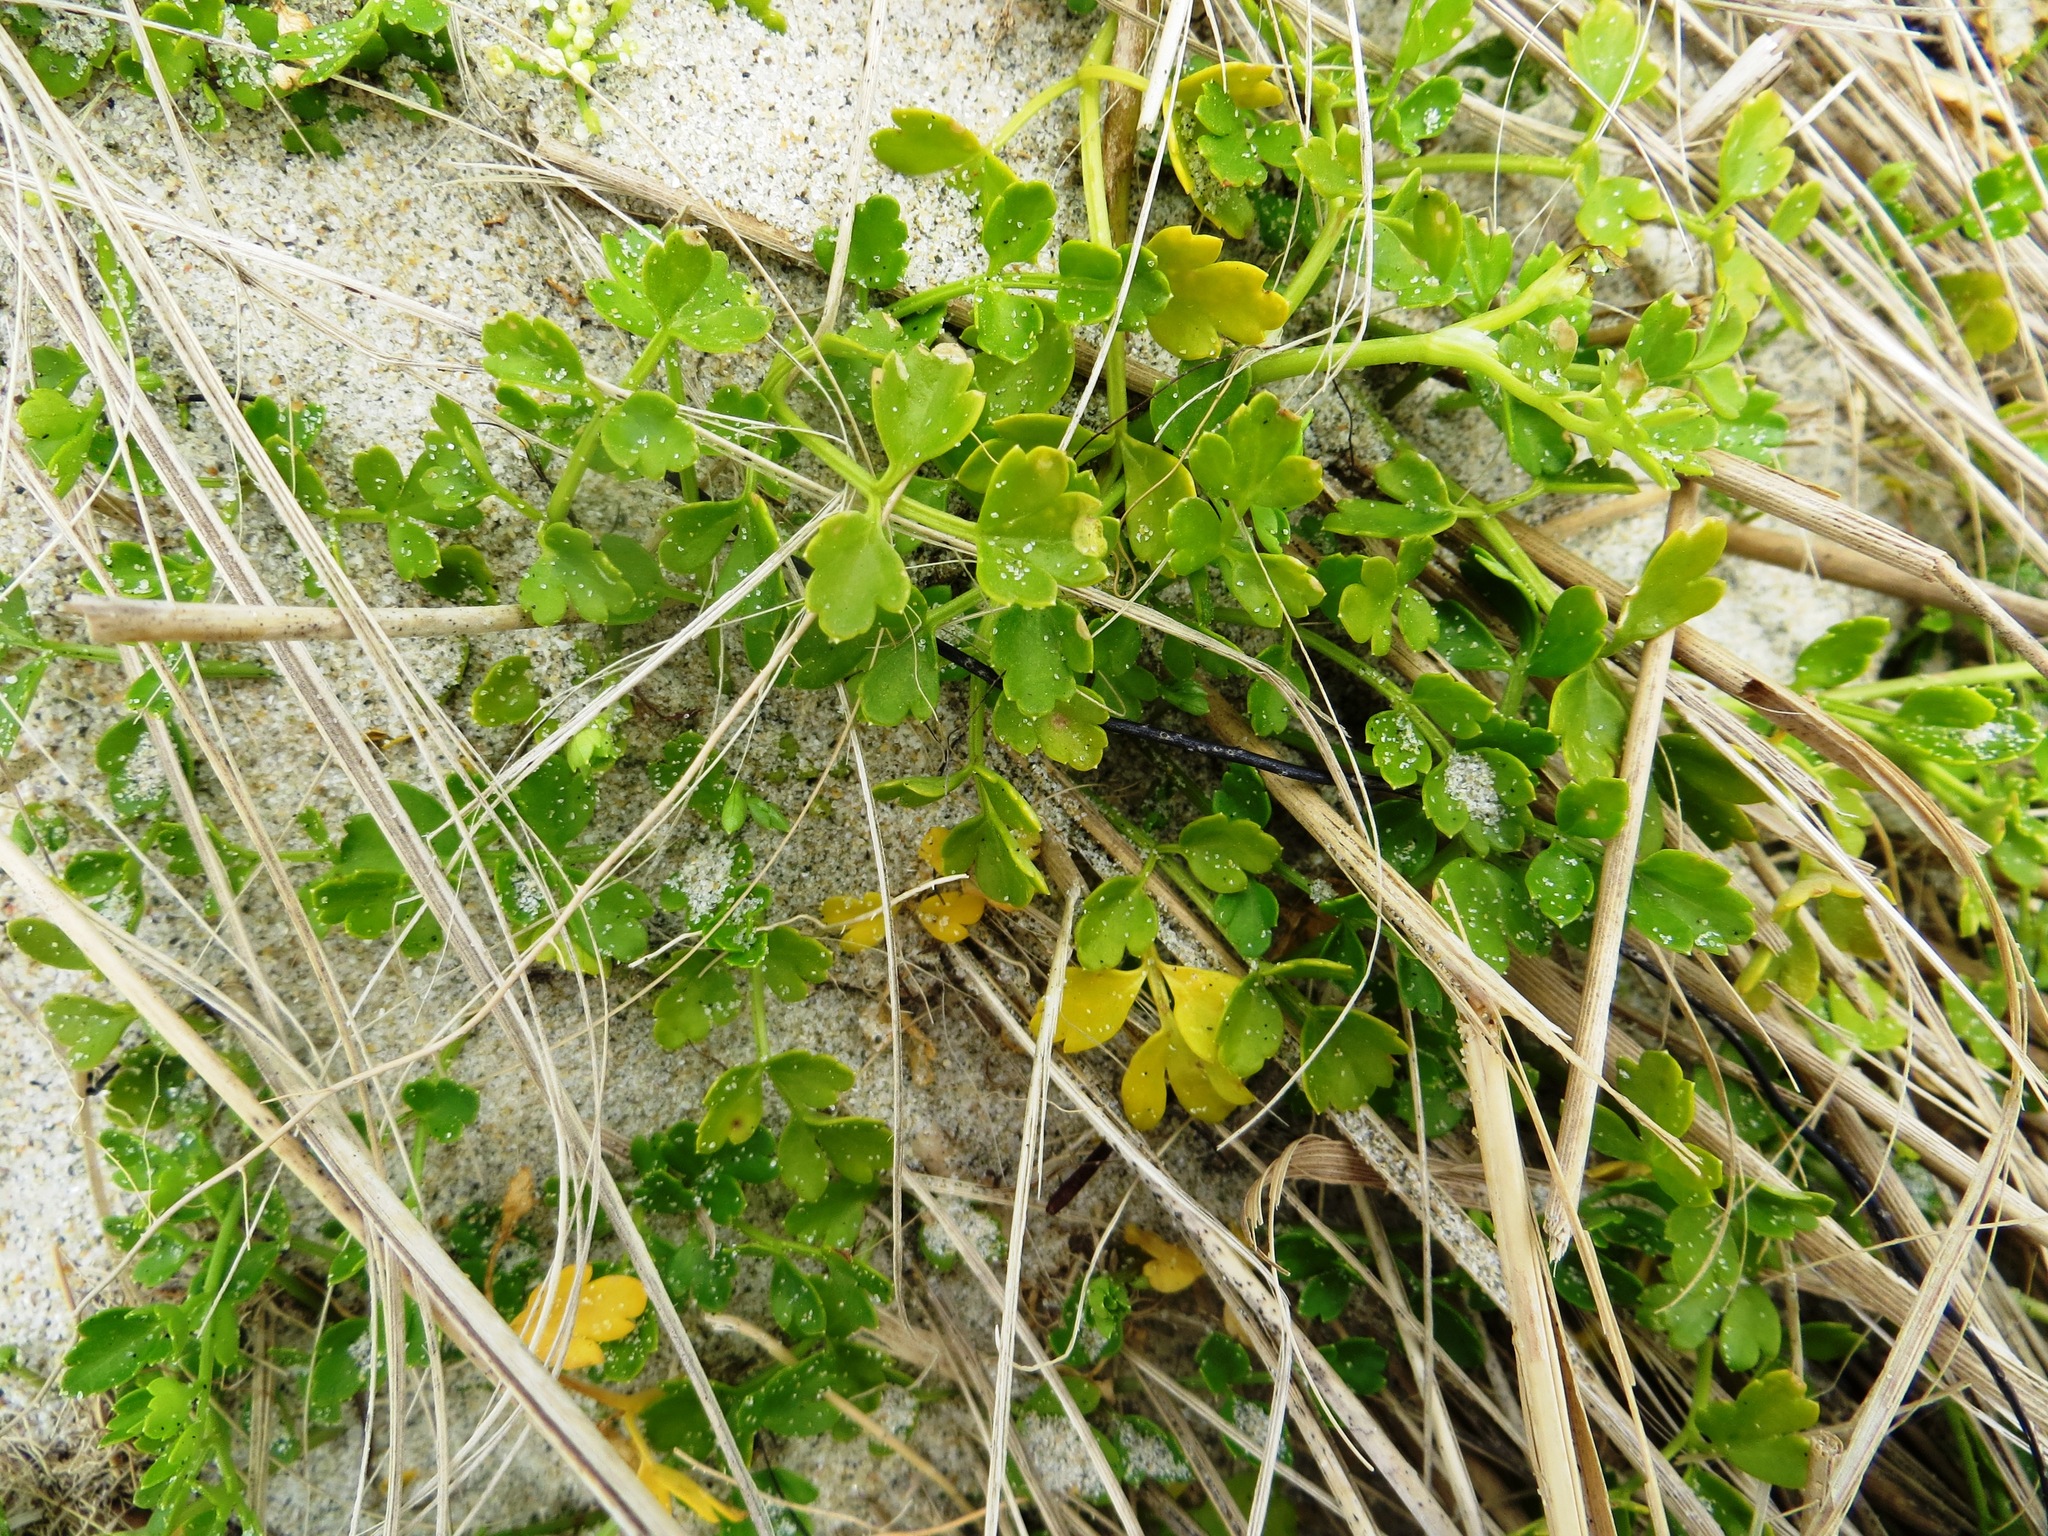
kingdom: Plantae
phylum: Tracheophyta
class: Magnoliopsida
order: Apiales
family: Apiaceae
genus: Apium
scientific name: Apium prostratum
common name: Prostrate marshwort
